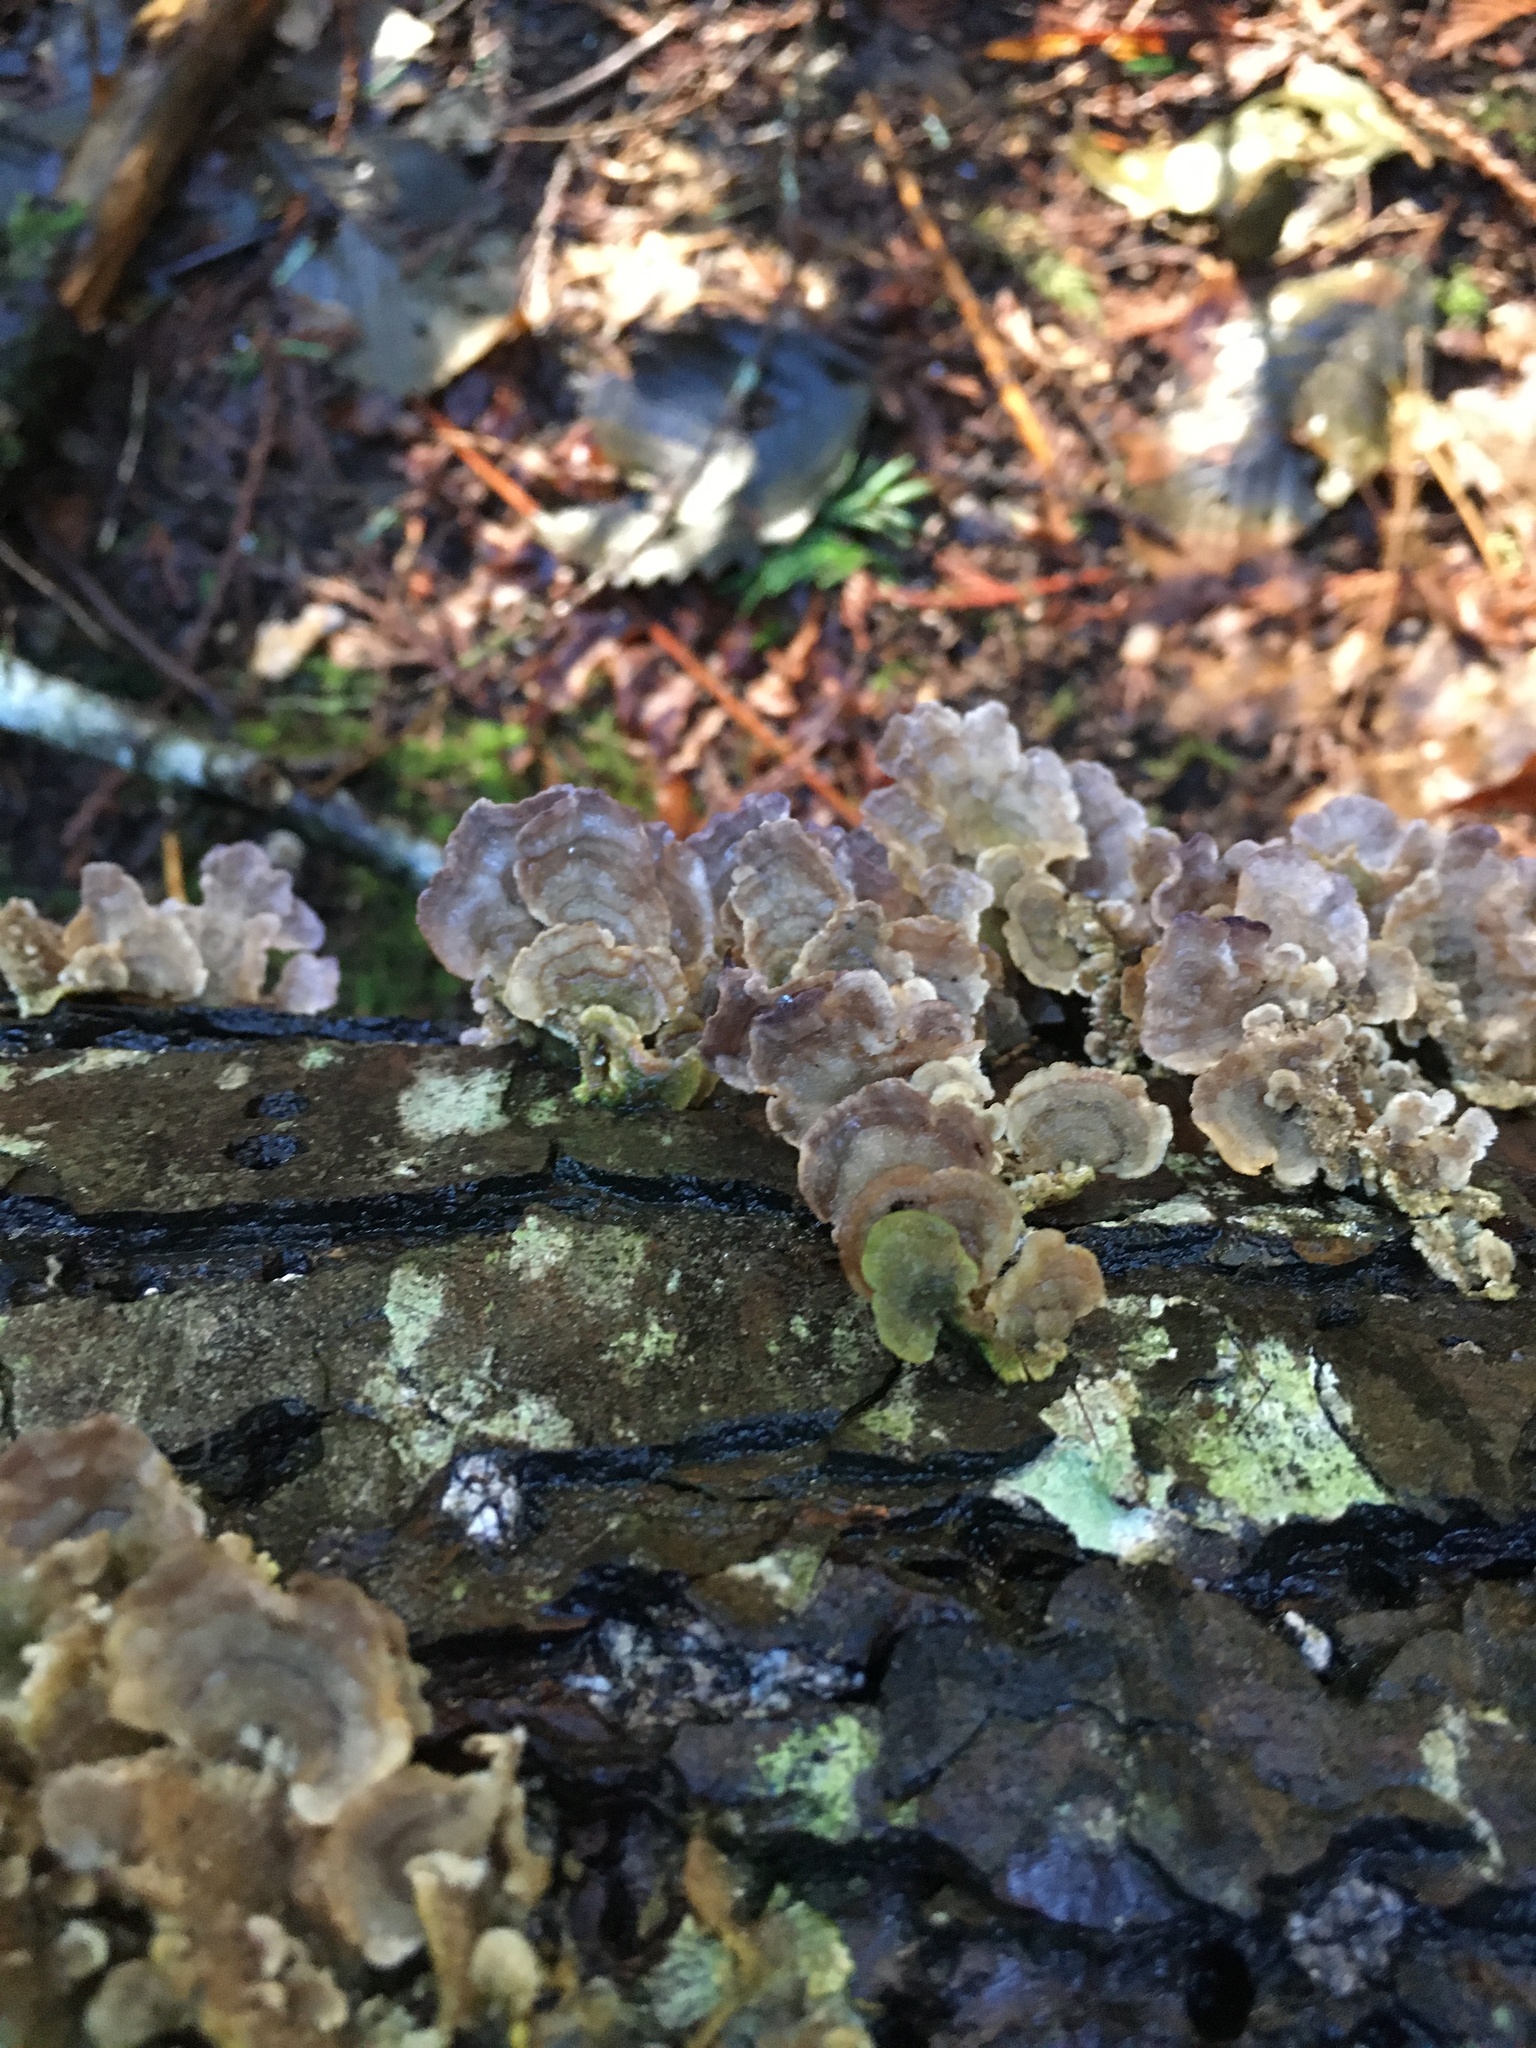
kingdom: Fungi
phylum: Basidiomycota
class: Agaricomycetes
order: Polyporales
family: Polyporaceae
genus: Trametes
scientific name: Trametes versicolor
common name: Turkeytail
